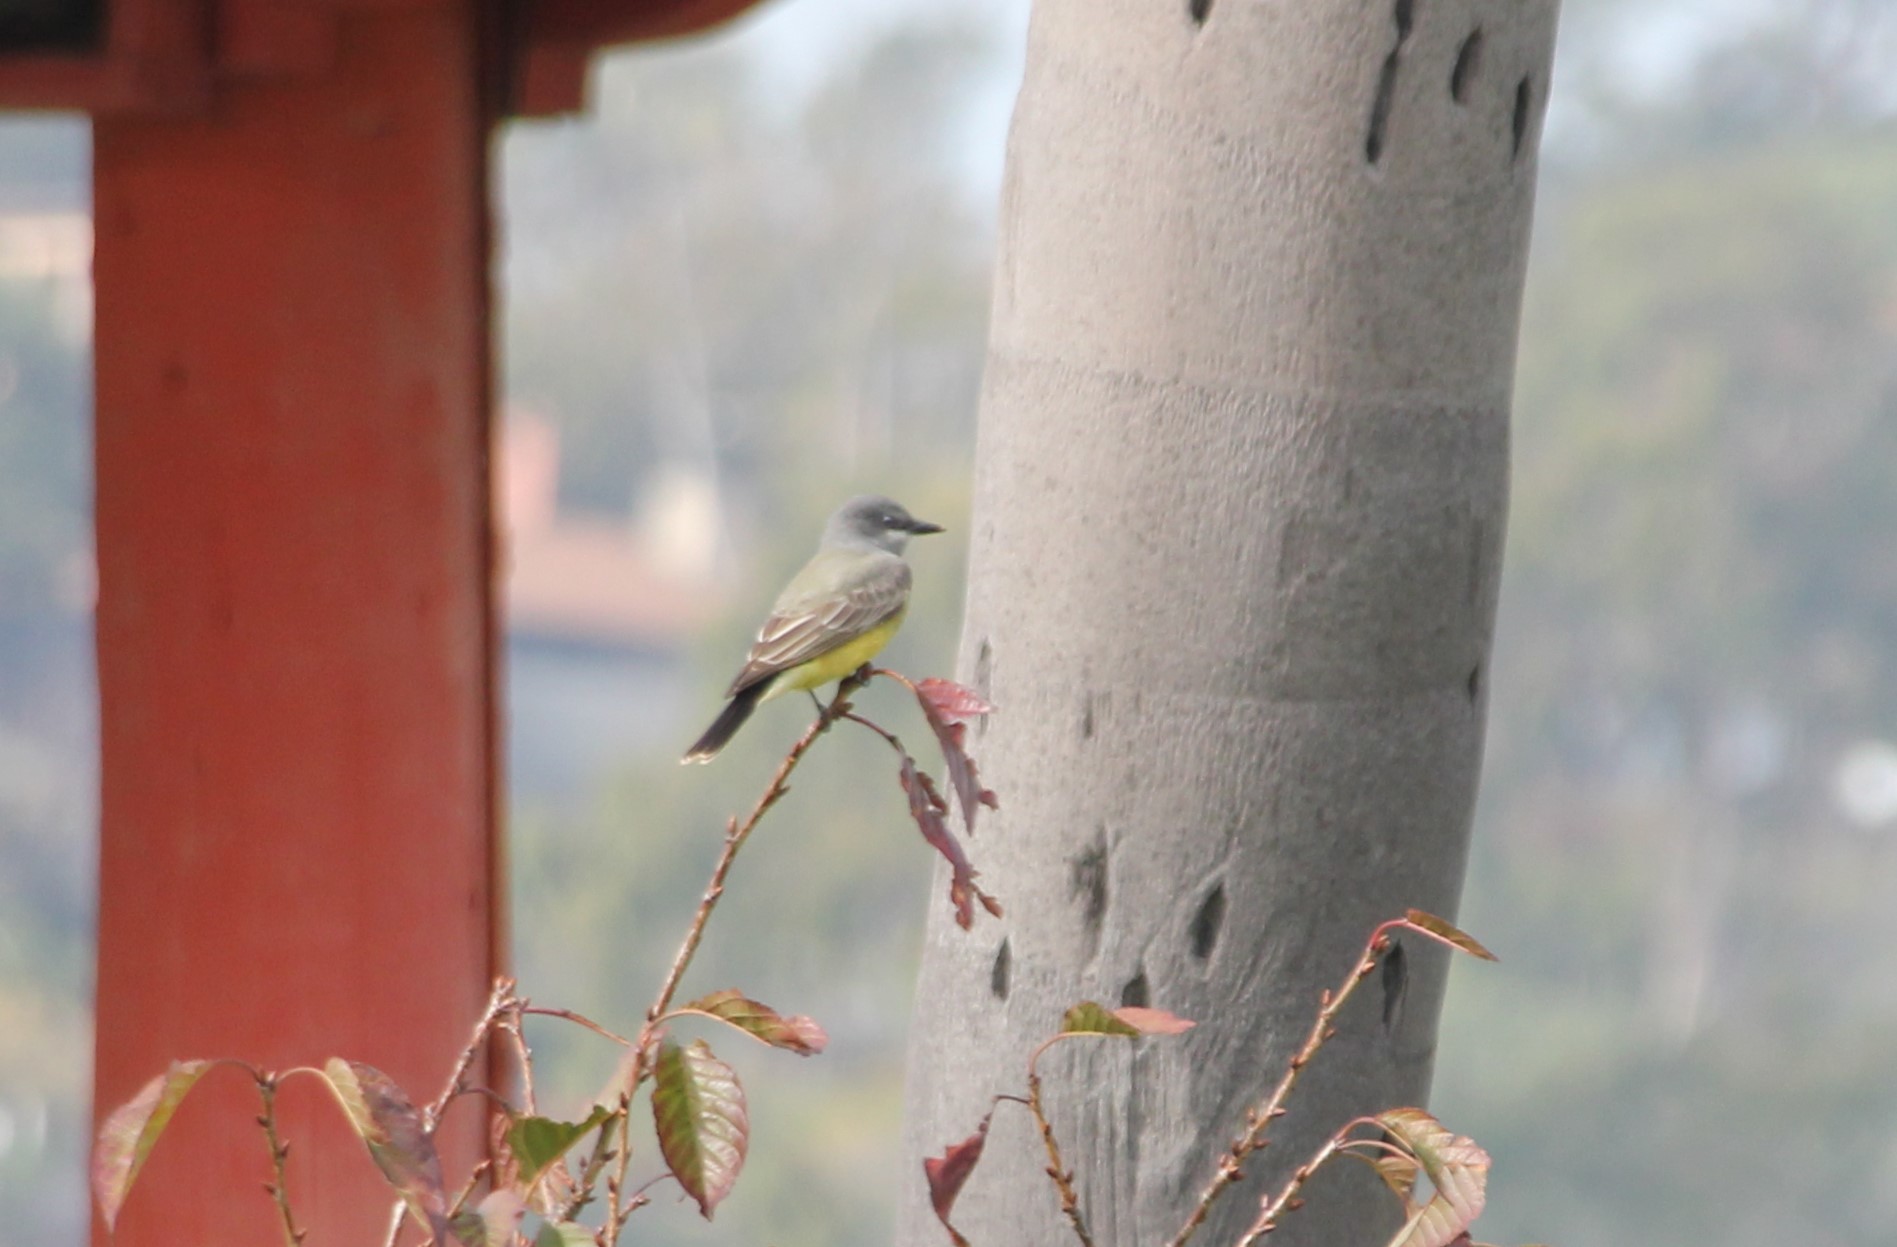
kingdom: Animalia
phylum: Chordata
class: Aves
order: Passeriformes
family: Tyrannidae
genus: Tyrannus
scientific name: Tyrannus vociferans
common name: Cassin's kingbird
